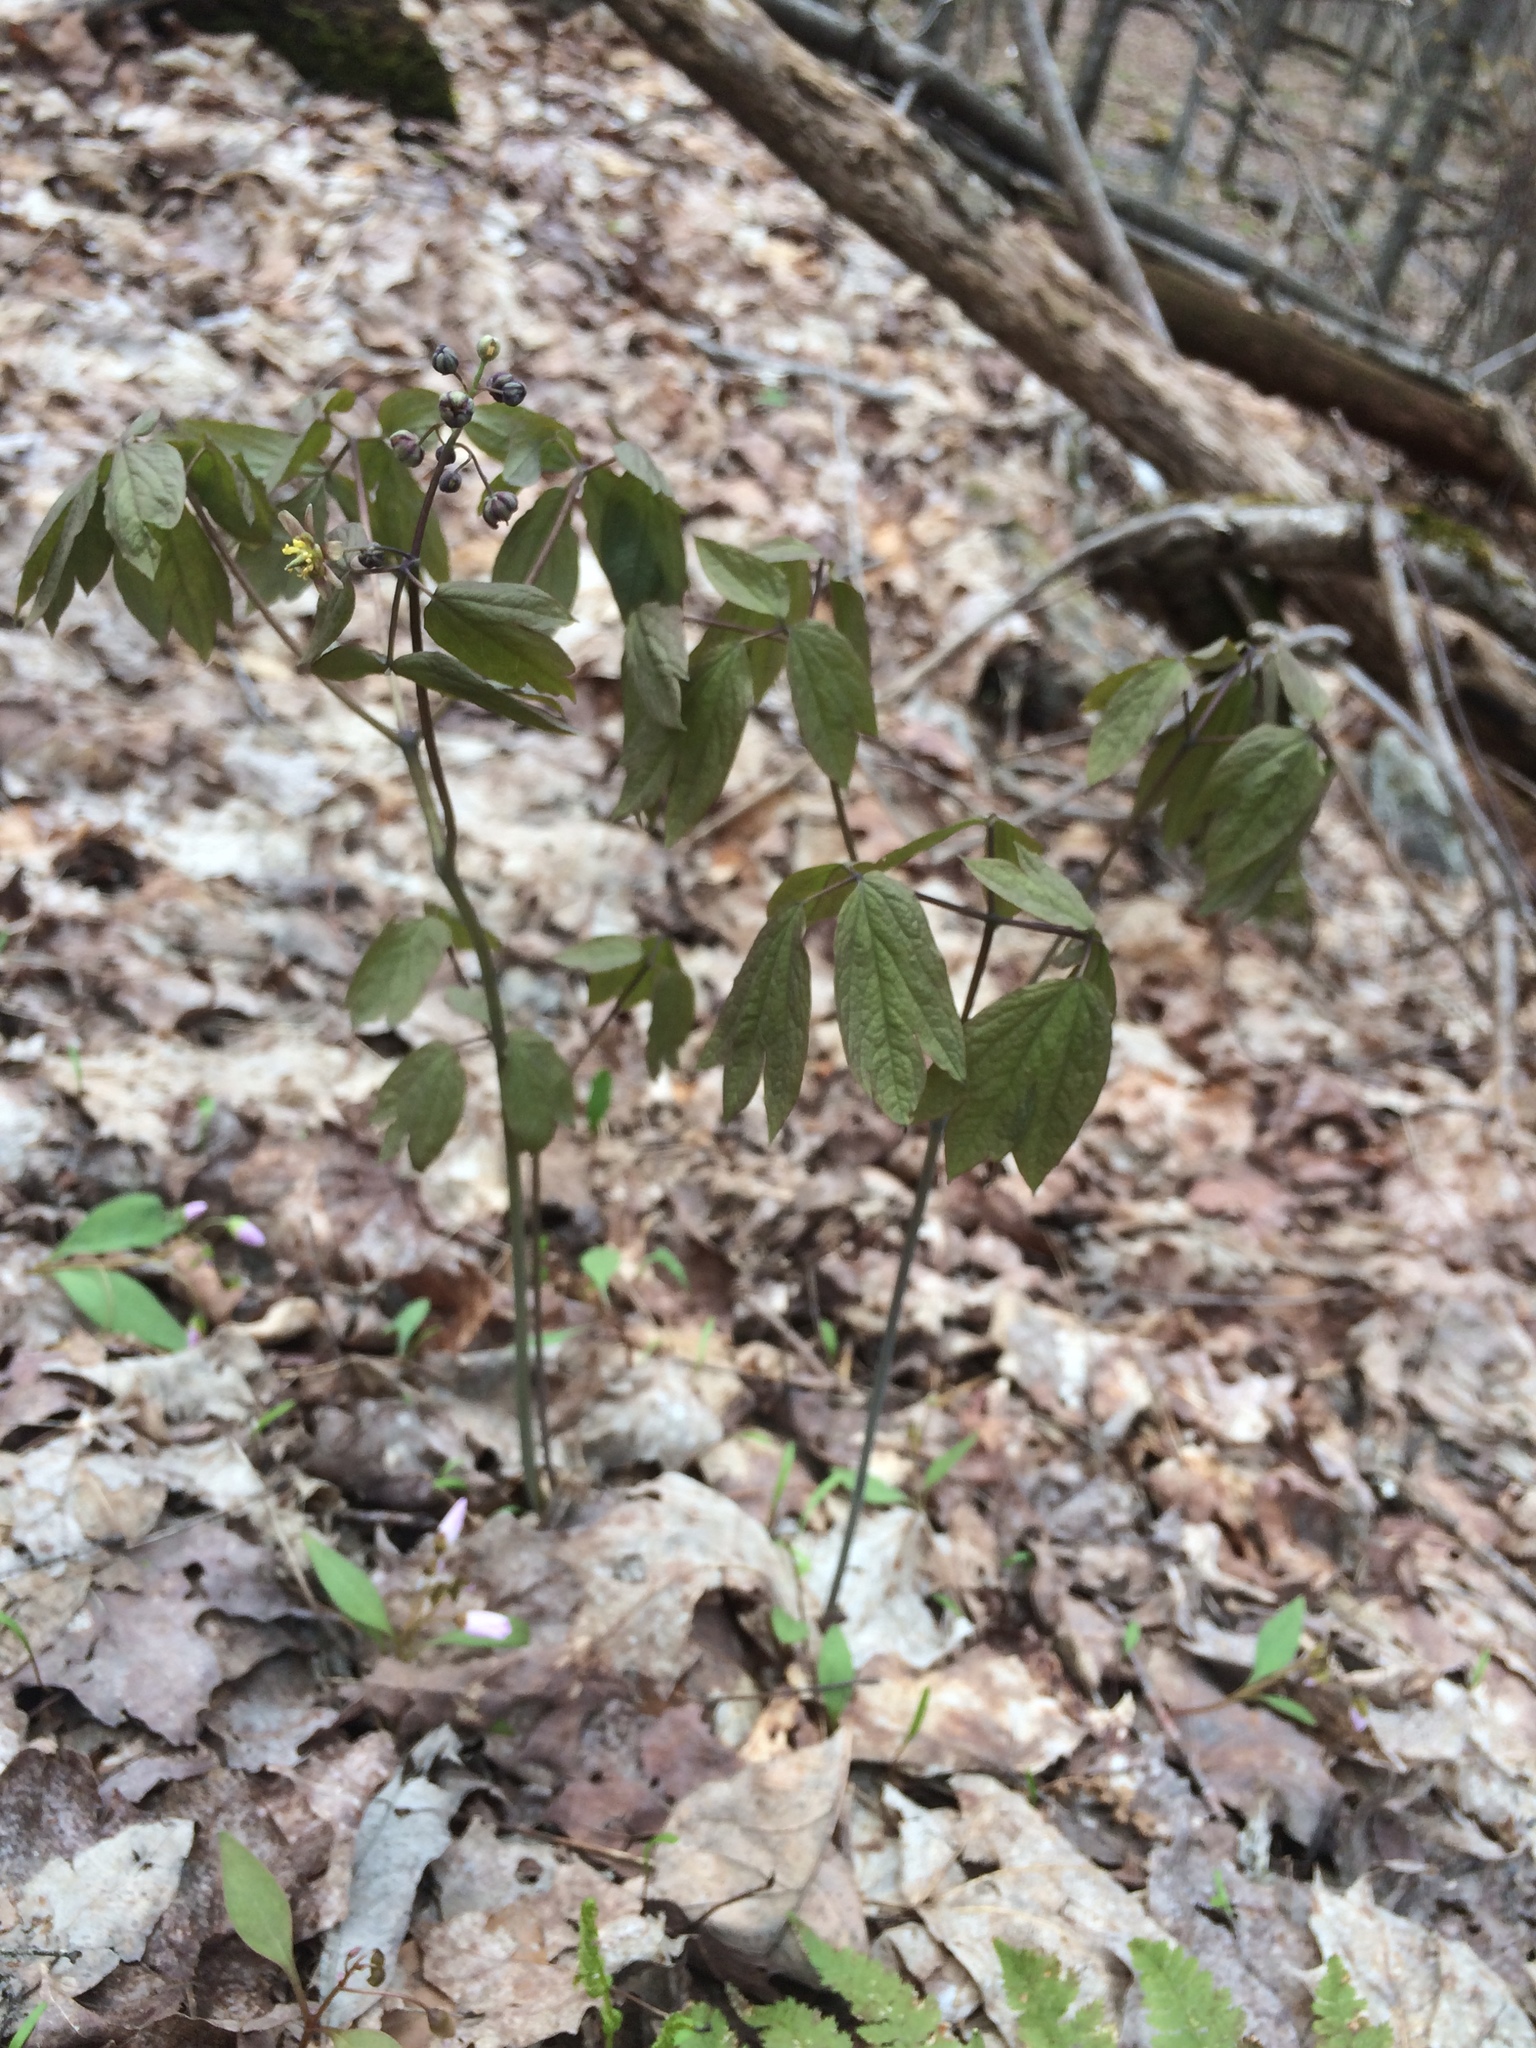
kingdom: Plantae
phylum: Tracheophyta
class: Magnoliopsida
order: Ranunculales
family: Berberidaceae
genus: Caulophyllum
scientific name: Caulophyllum
